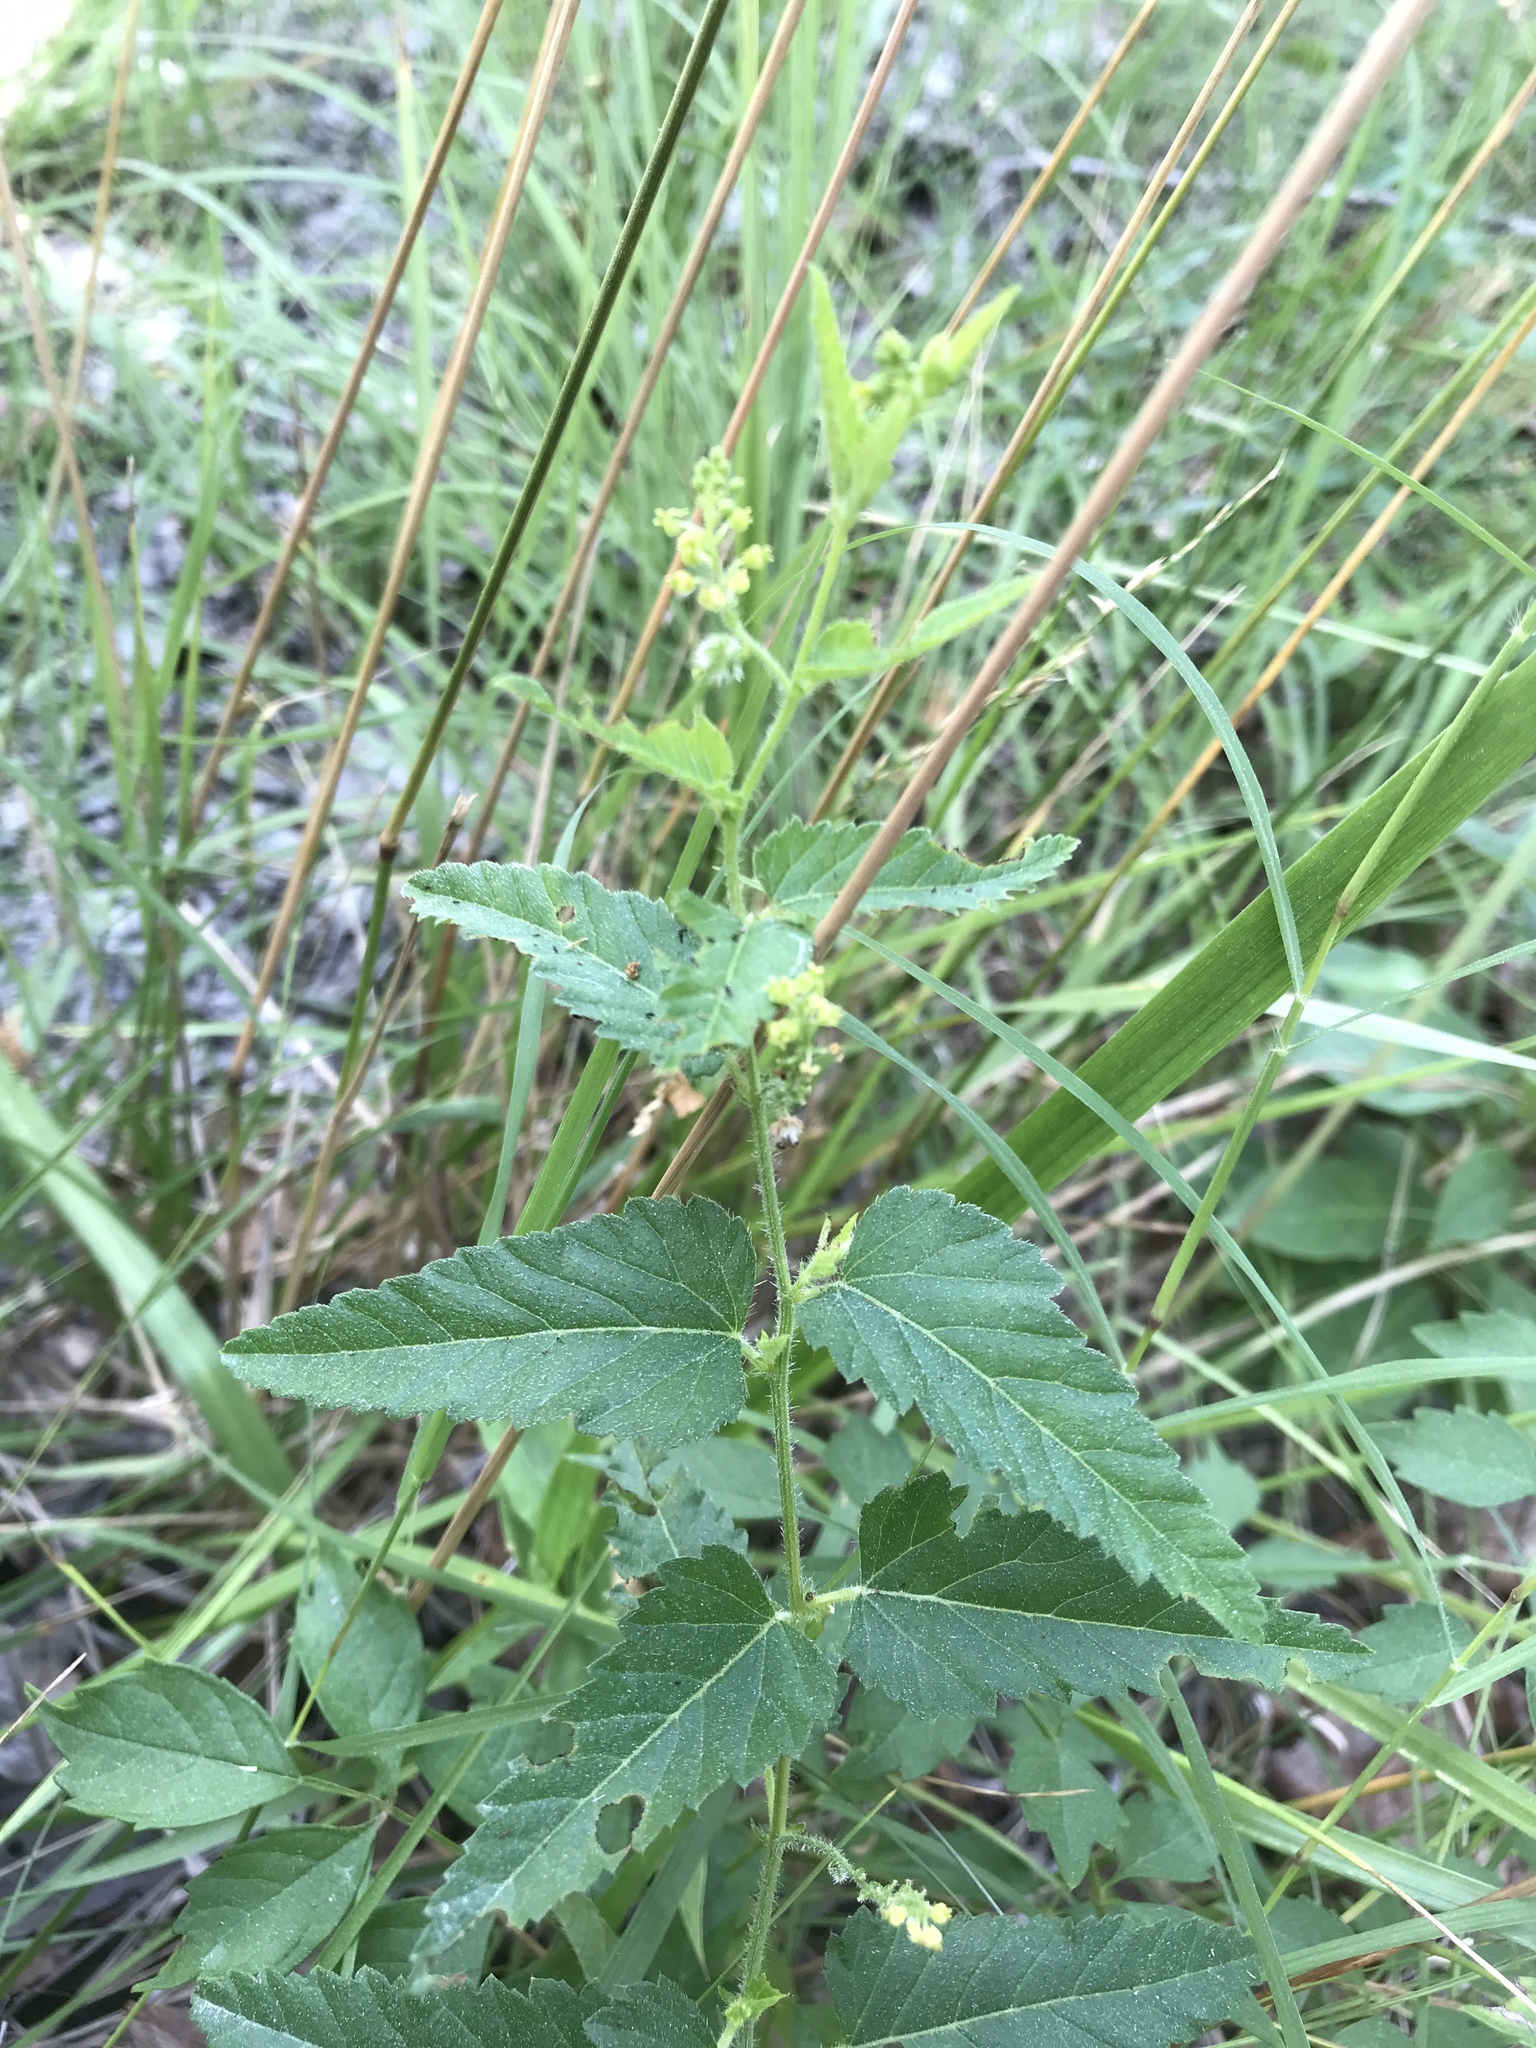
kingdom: Plantae
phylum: Tracheophyta
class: Magnoliopsida
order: Malpighiales
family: Euphorbiaceae
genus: Tragia
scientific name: Tragia urticifolia
